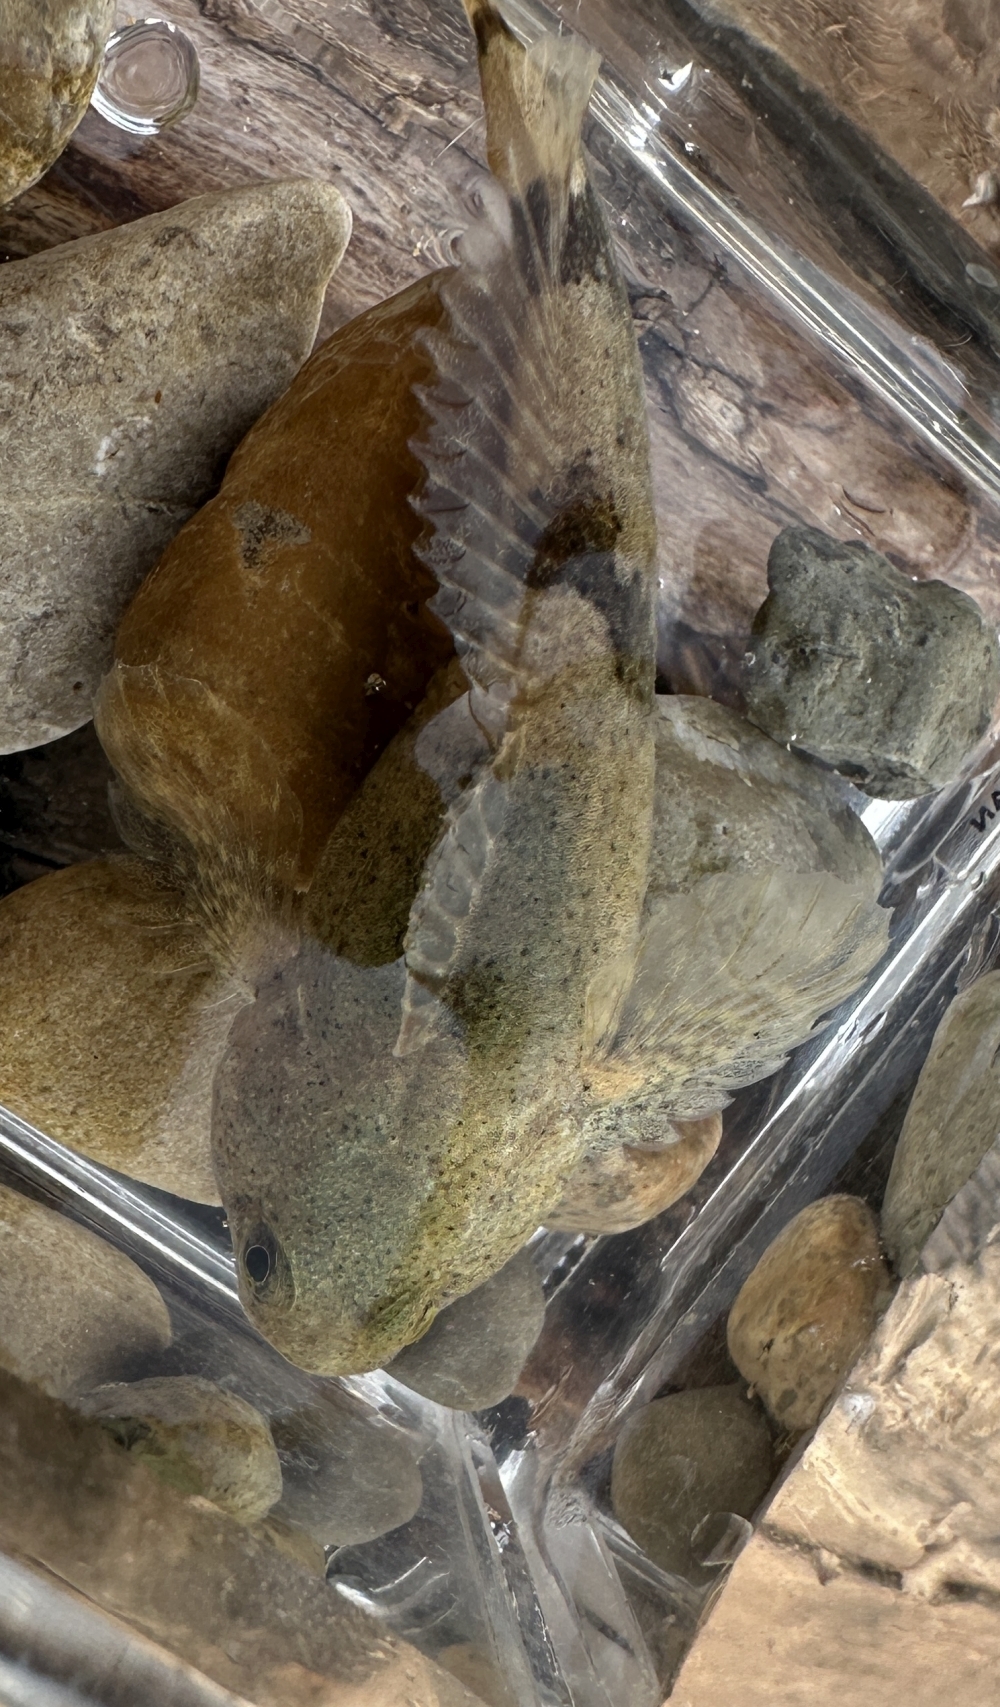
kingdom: Animalia
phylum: Chordata
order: Scorpaeniformes
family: Cottidae
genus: Cottus
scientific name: Cottus bairdii
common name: Mottled sculpin
